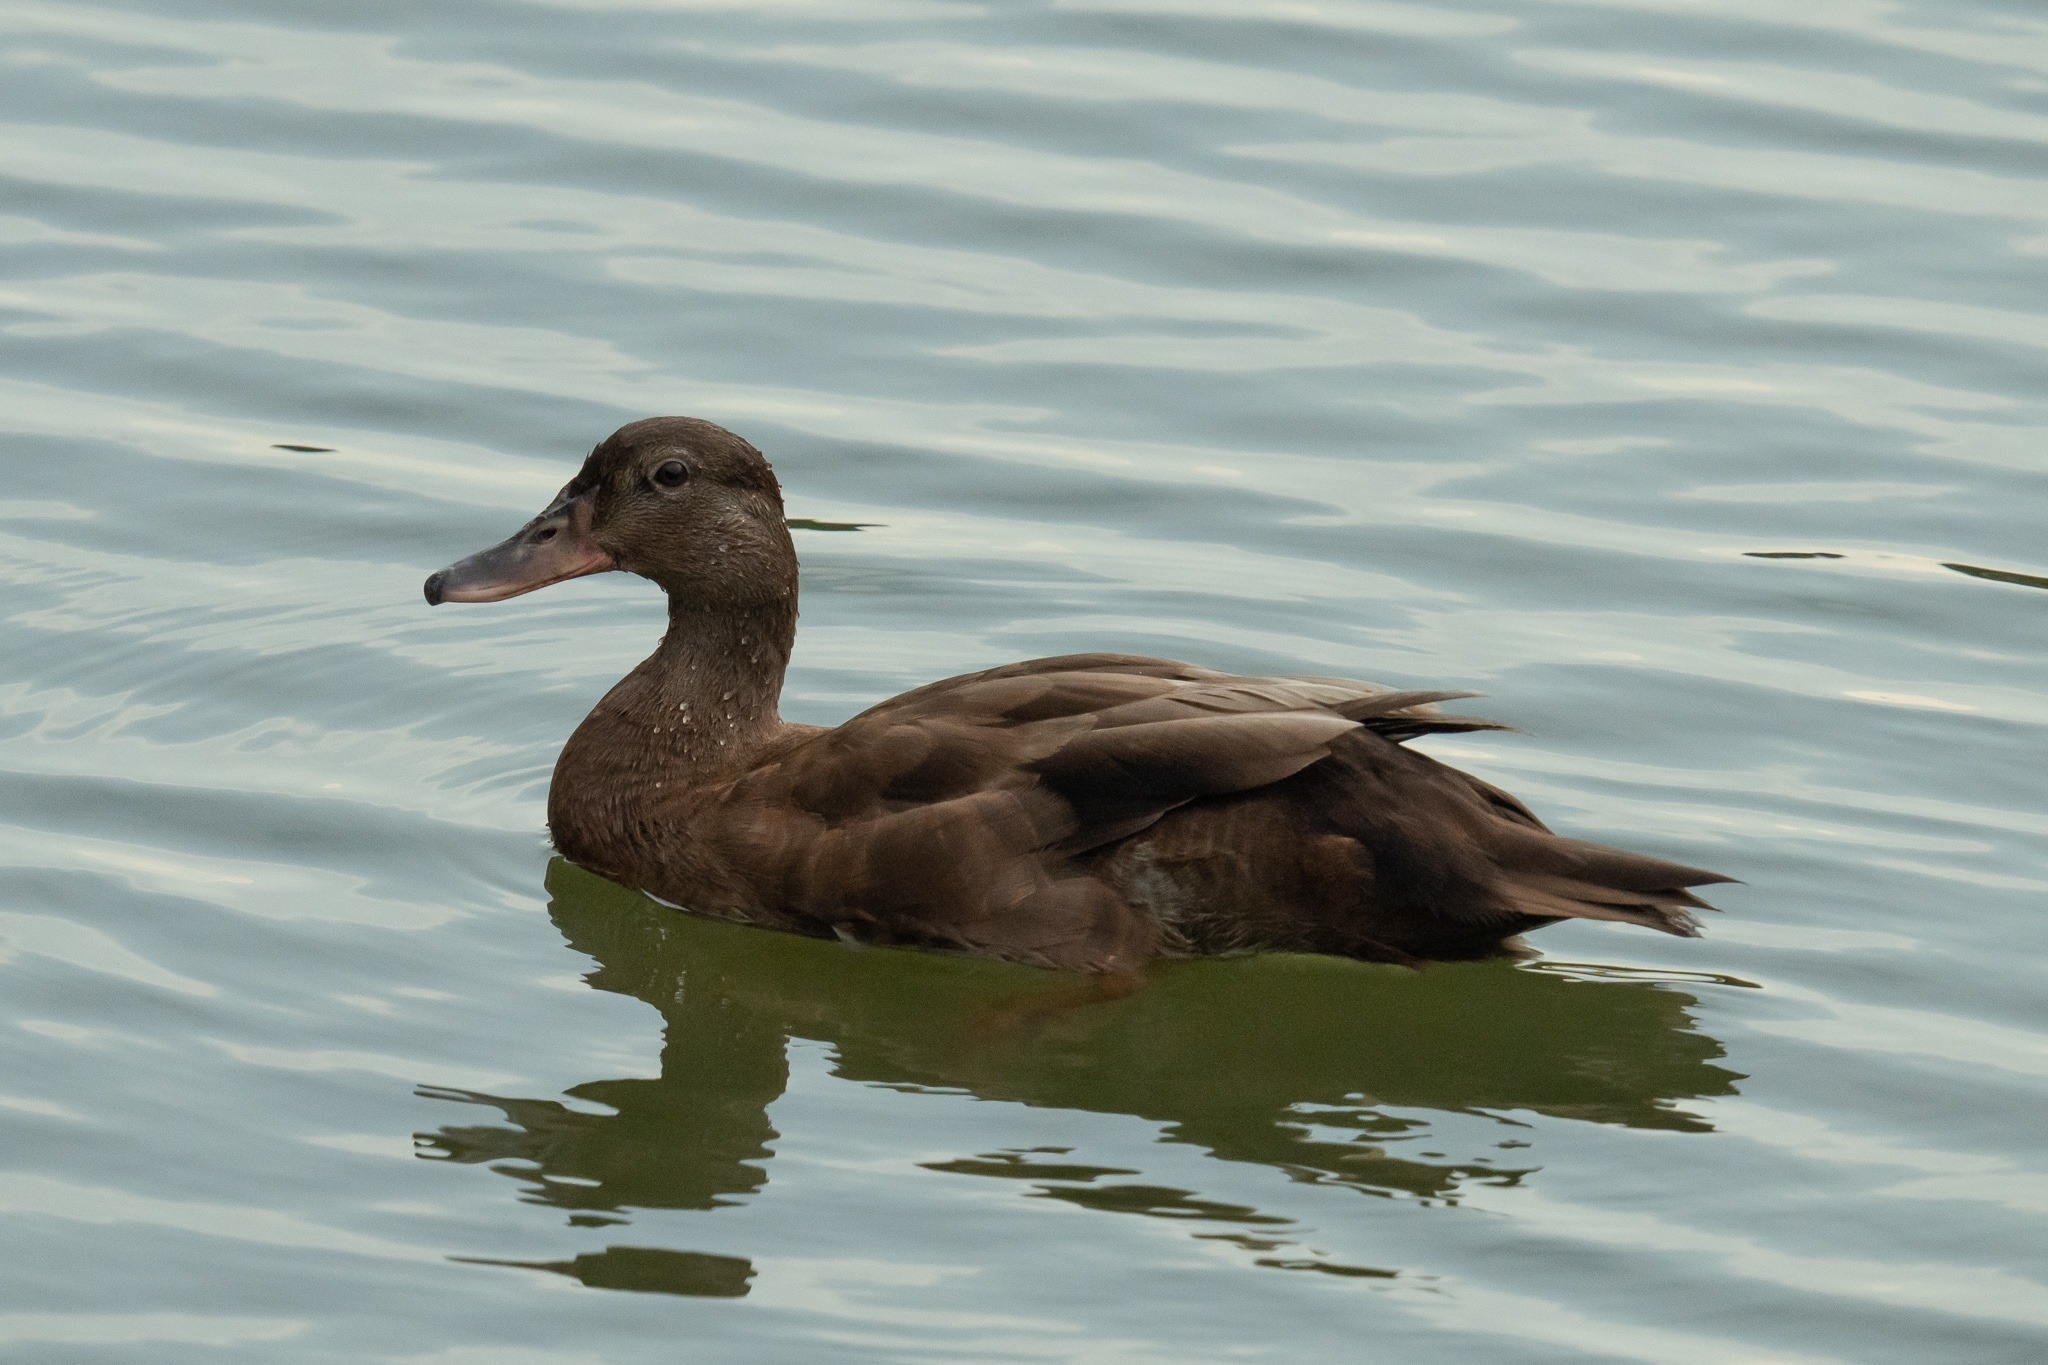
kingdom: Animalia
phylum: Chordata
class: Aves
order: Anseriformes
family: Anatidae
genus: Anas
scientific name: Anas platyrhynchos
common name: Mallard
